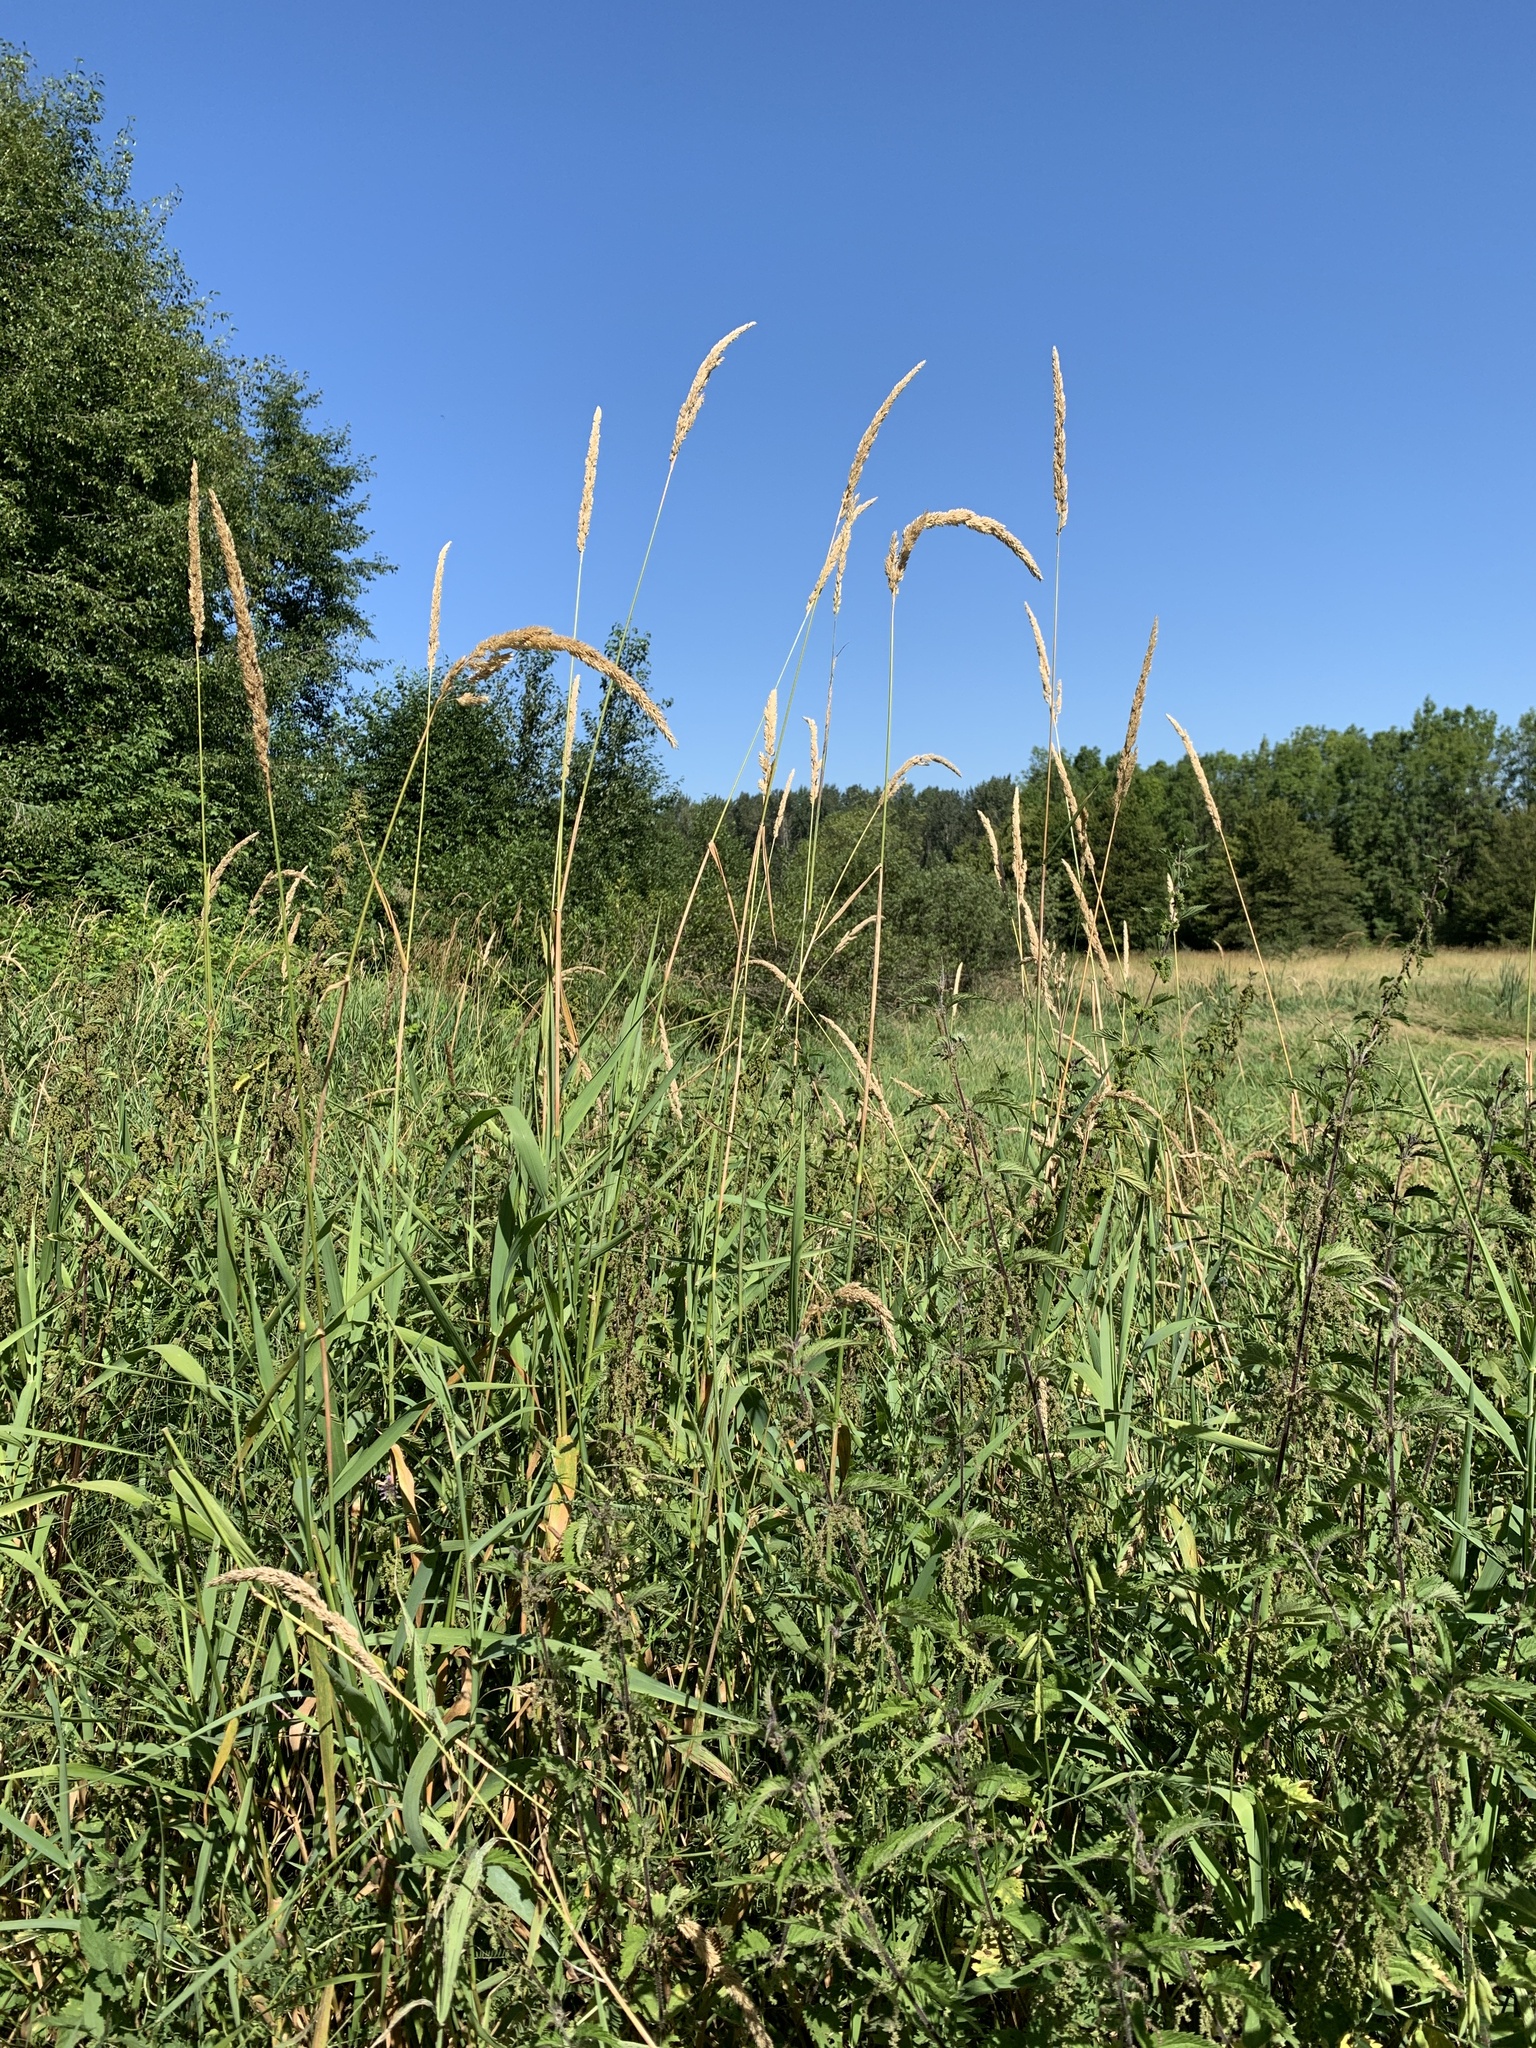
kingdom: Plantae
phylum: Tracheophyta
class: Liliopsida
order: Poales
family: Poaceae
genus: Phalaris
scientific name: Phalaris arundinacea
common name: Reed canary-grass
